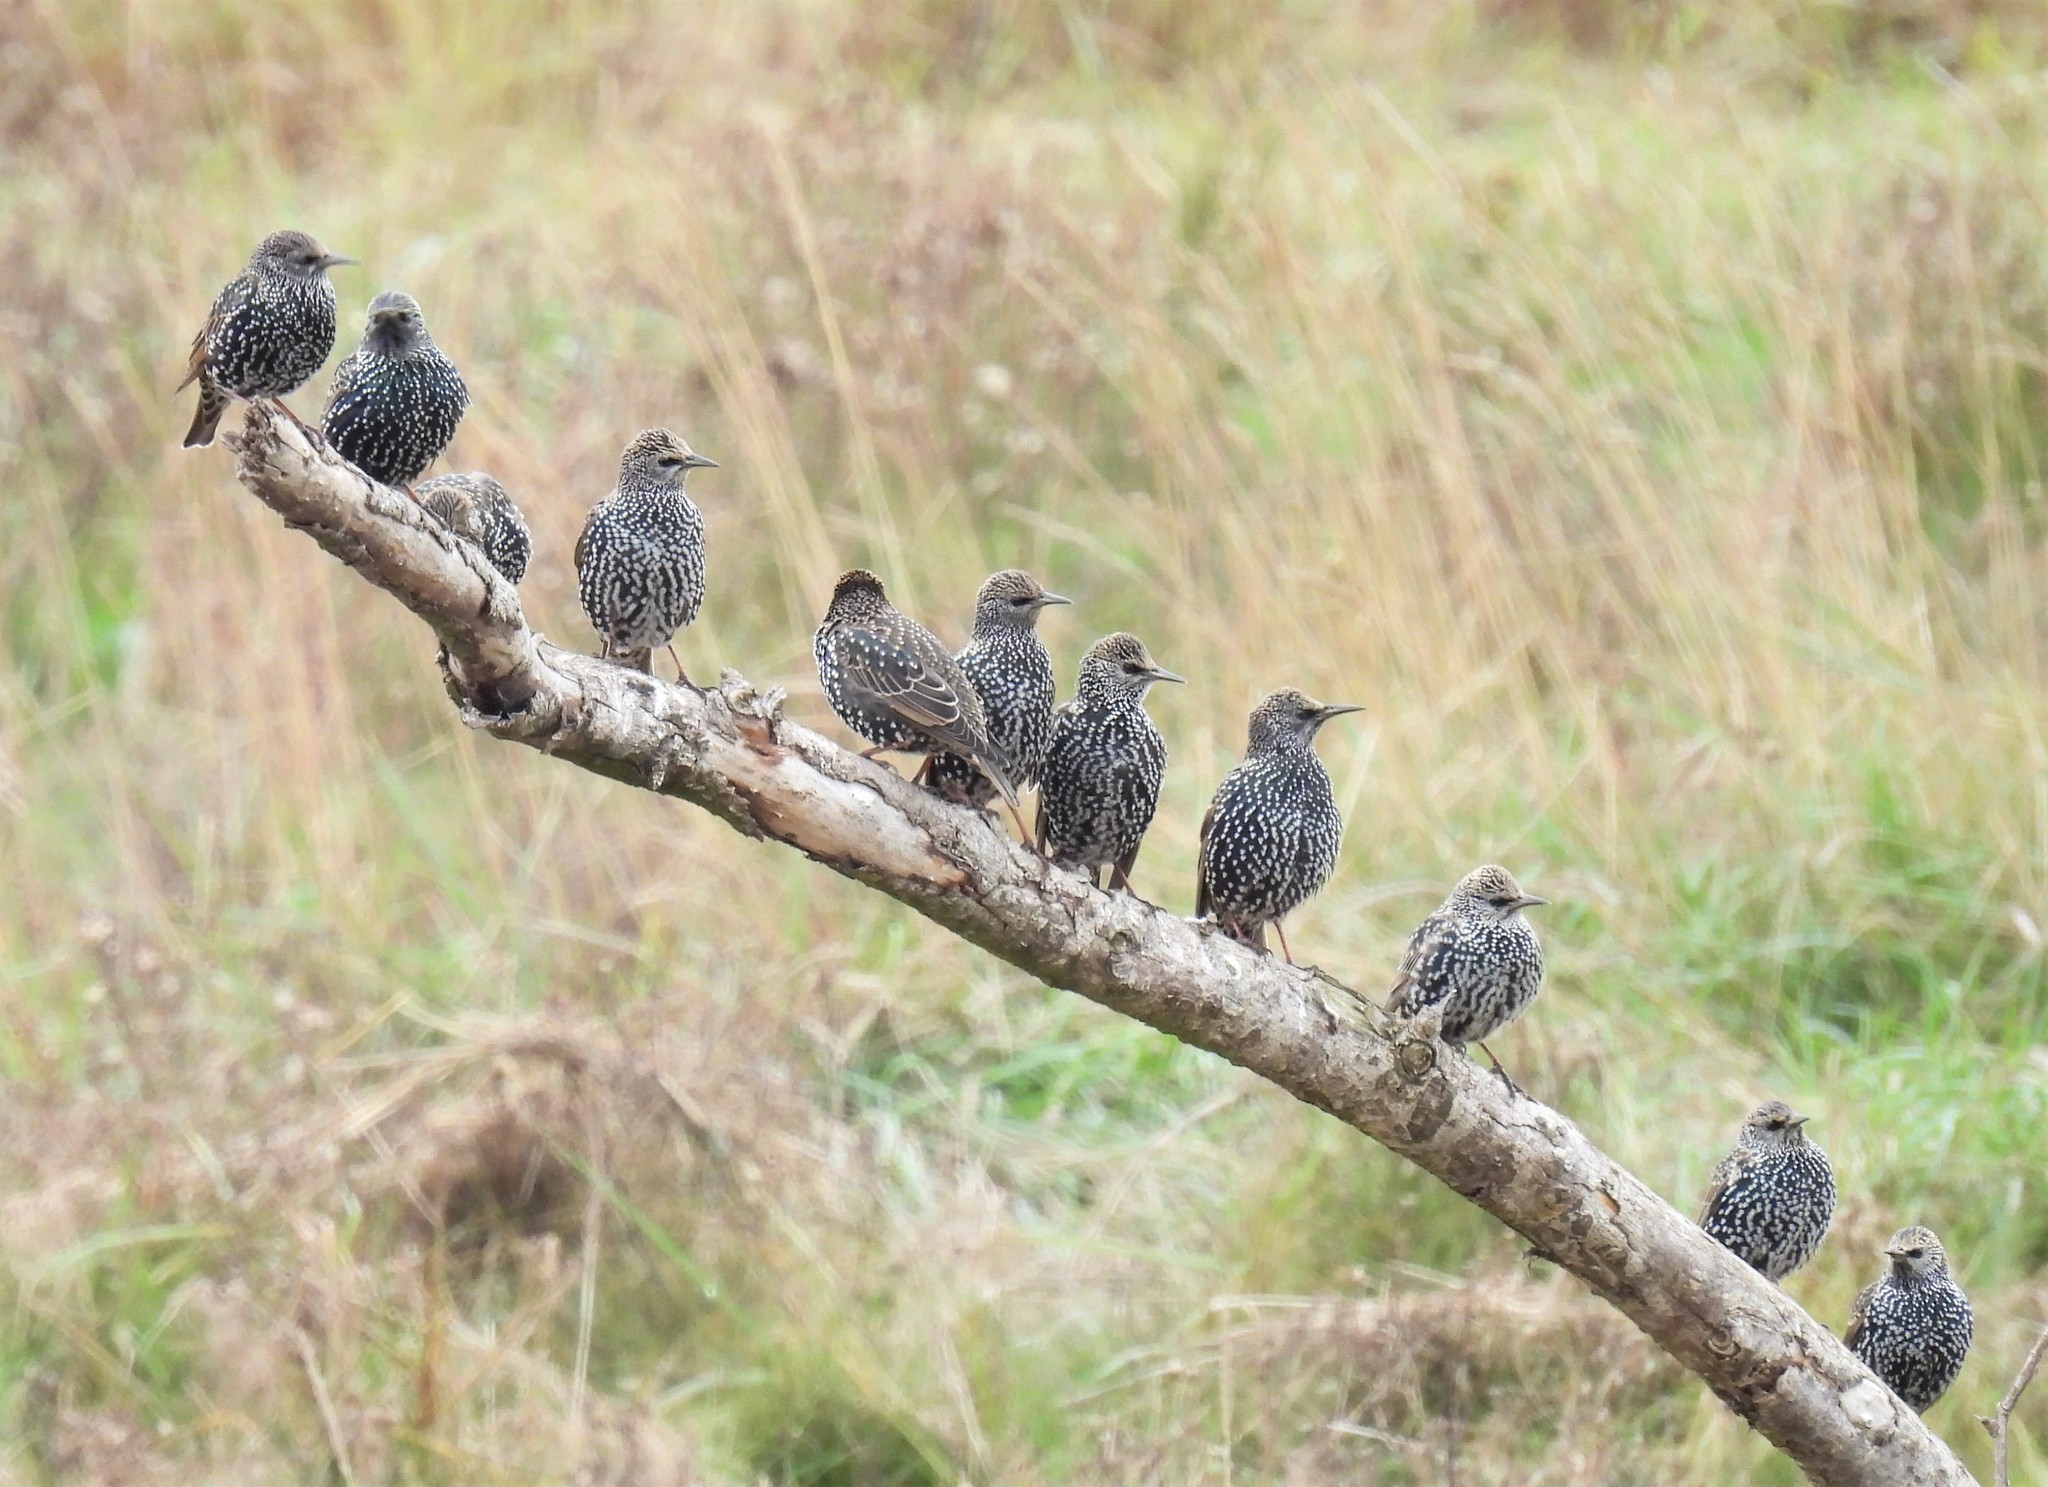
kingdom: Animalia
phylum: Chordata
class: Aves
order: Passeriformes
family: Sturnidae
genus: Sturnus
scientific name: Sturnus vulgaris
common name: Common starling
